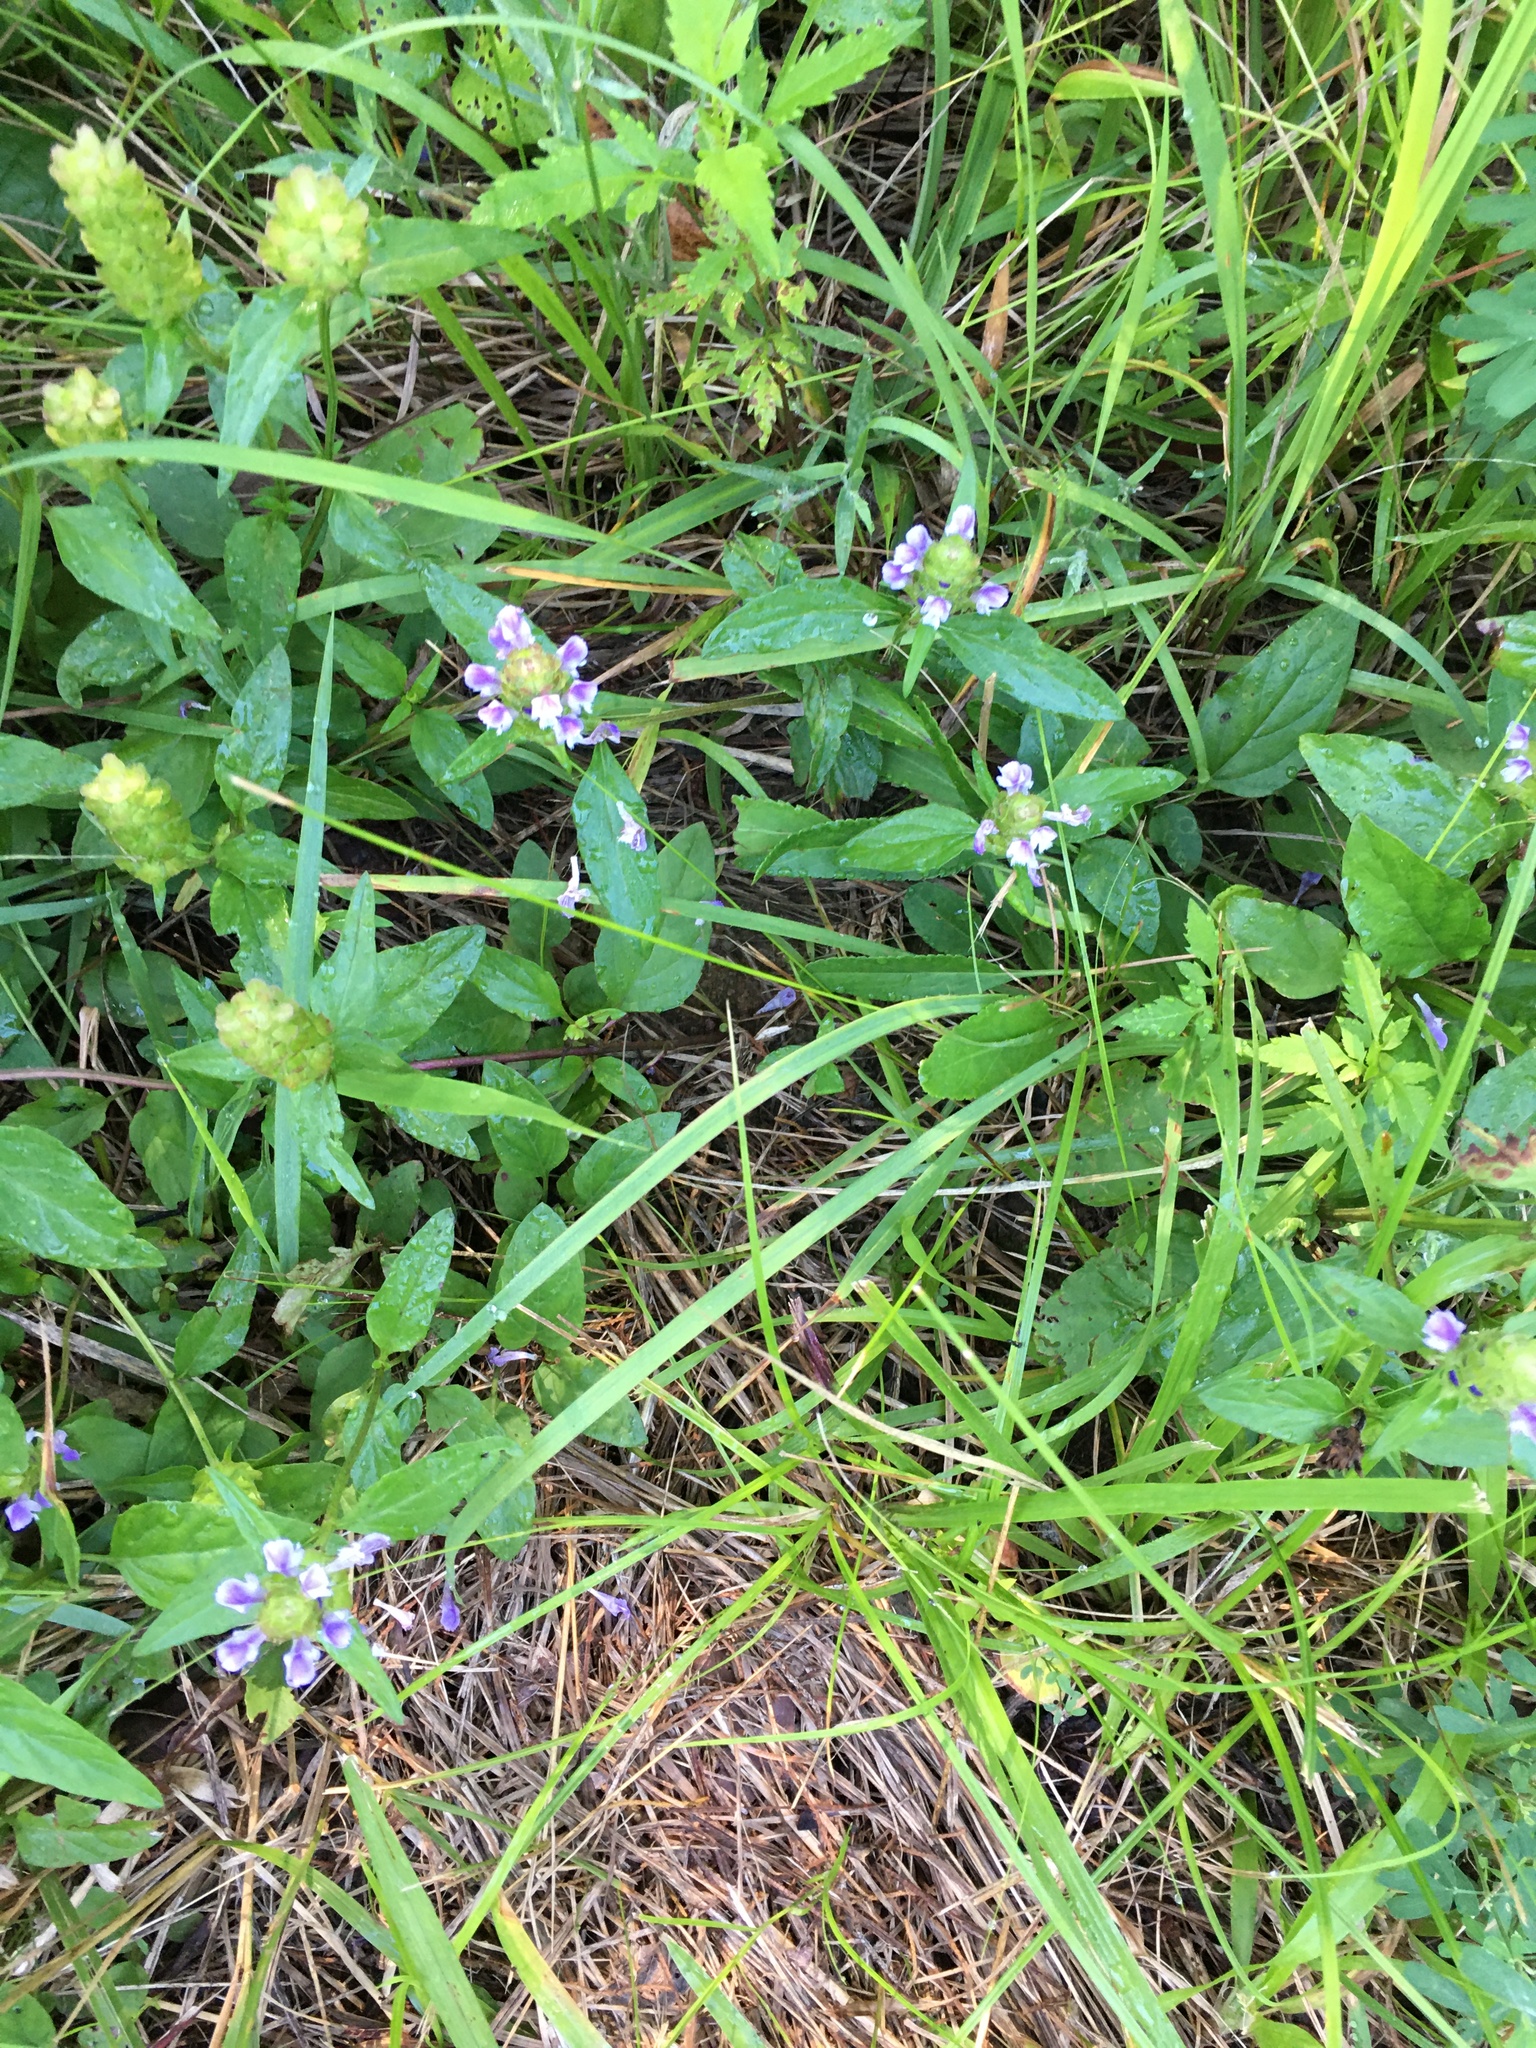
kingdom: Plantae
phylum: Tracheophyta
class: Magnoliopsida
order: Lamiales
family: Lamiaceae
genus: Prunella
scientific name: Prunella vulgaris
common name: Heal-all
